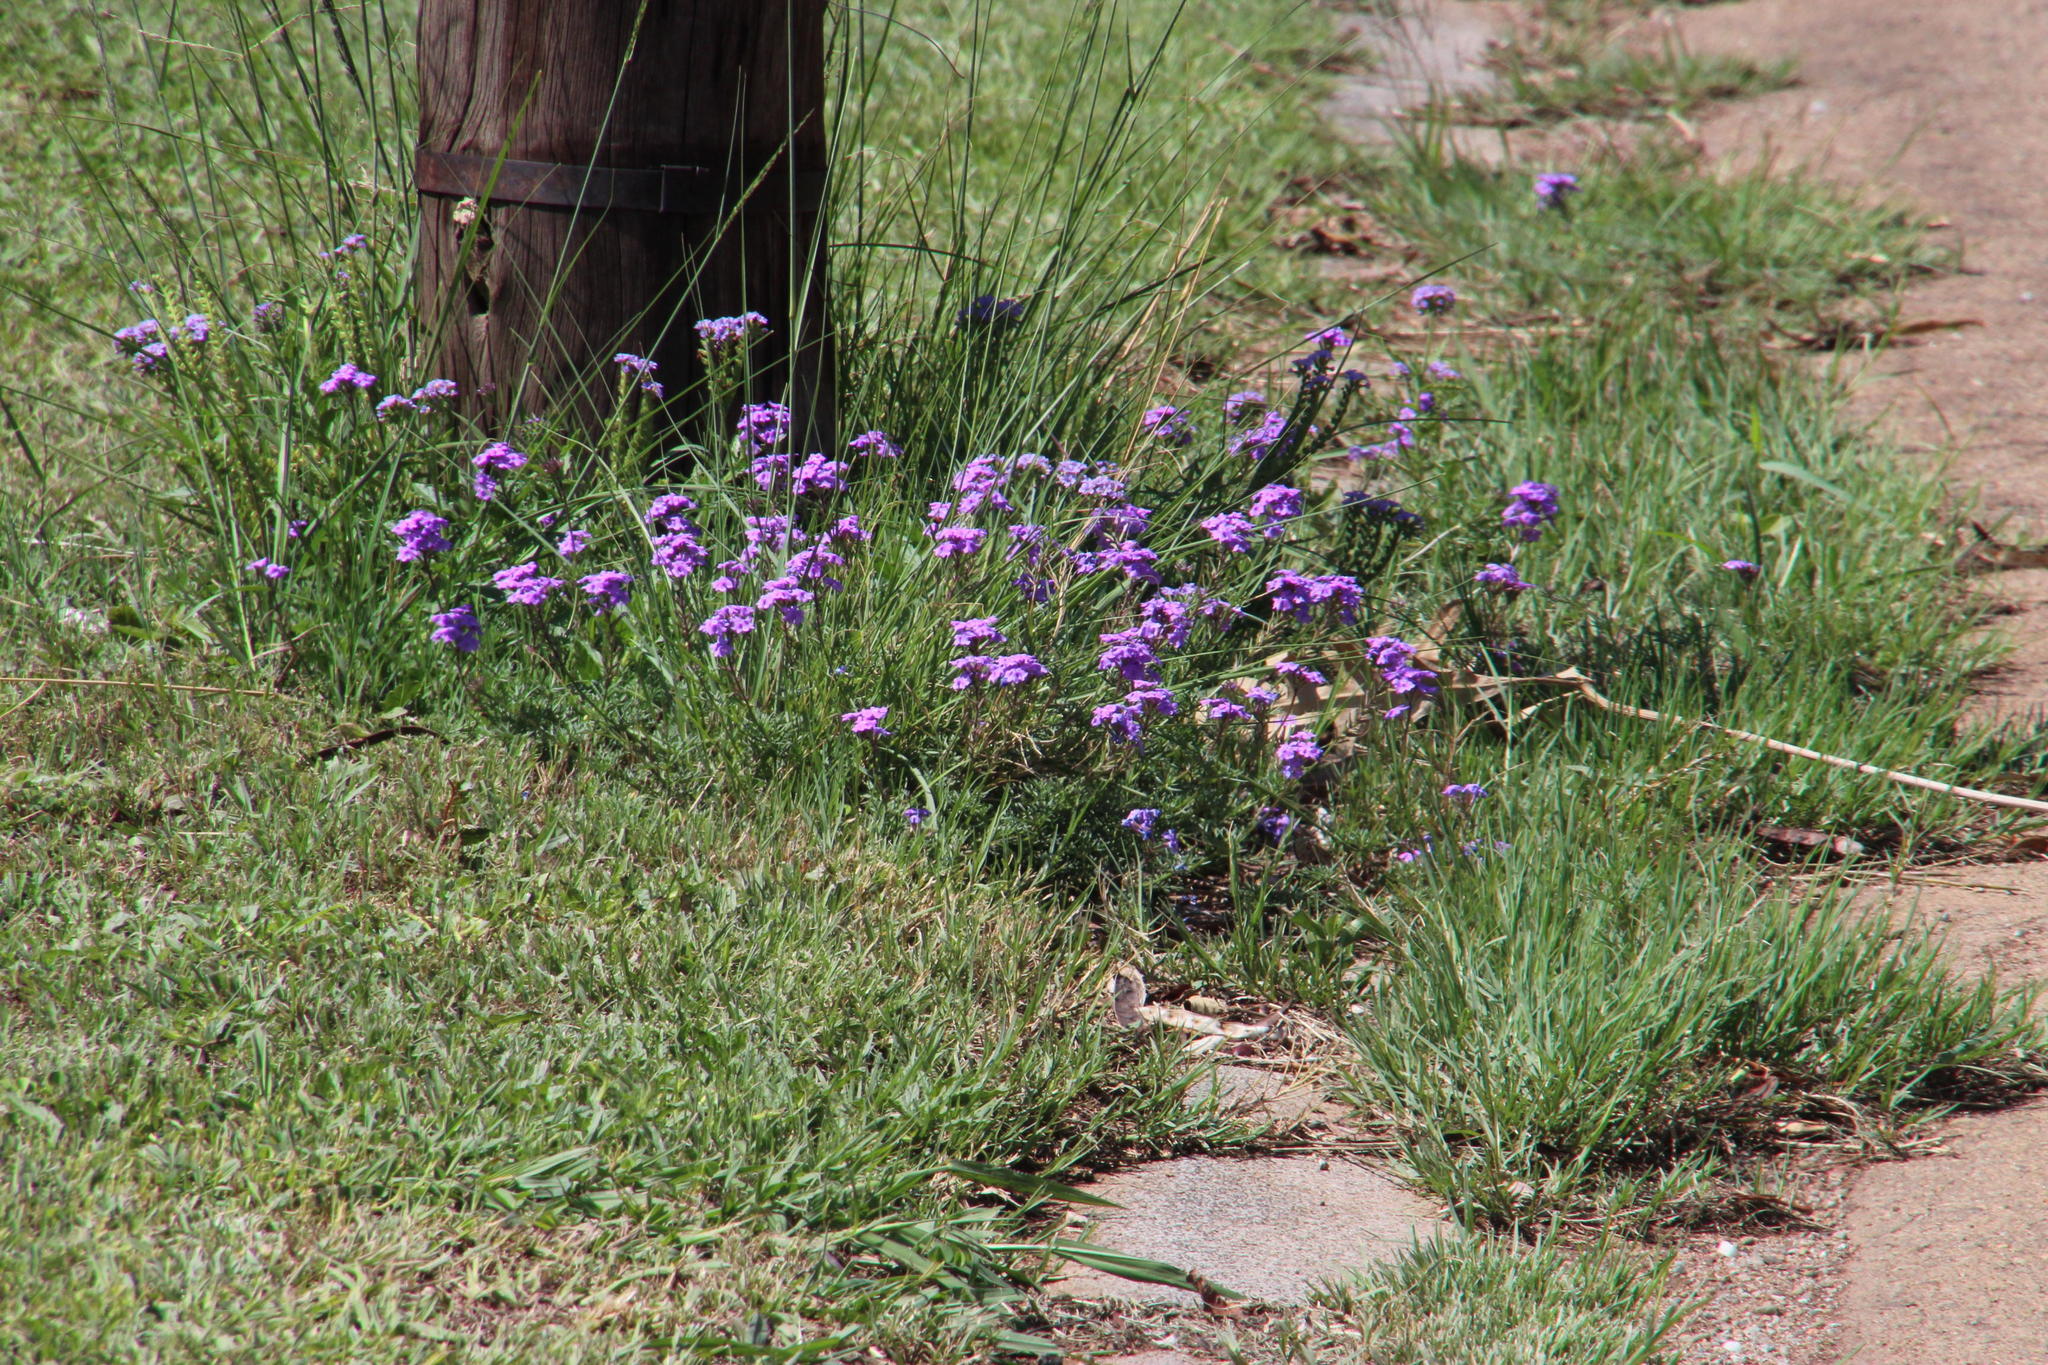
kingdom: Plantae
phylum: Tracheophyta
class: Magnoliopsida
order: Boraginales
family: Heliotropiaceae
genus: Heliotropium
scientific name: Heliotropium amplexicaule
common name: Clasping heliotrope
